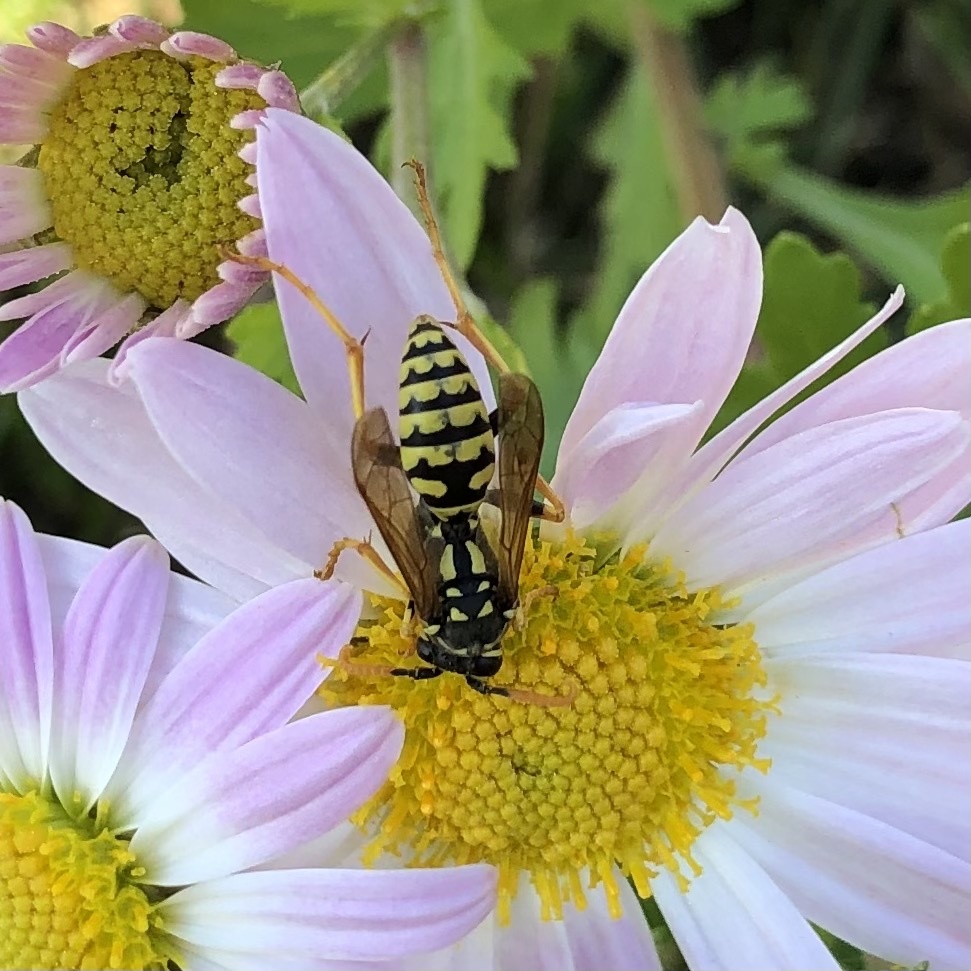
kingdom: Animalia
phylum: Arthropoda
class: Insecta
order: Hymenoptera
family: Eumenidae
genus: Polistes
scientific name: Polistes dominula
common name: Paper wasp
